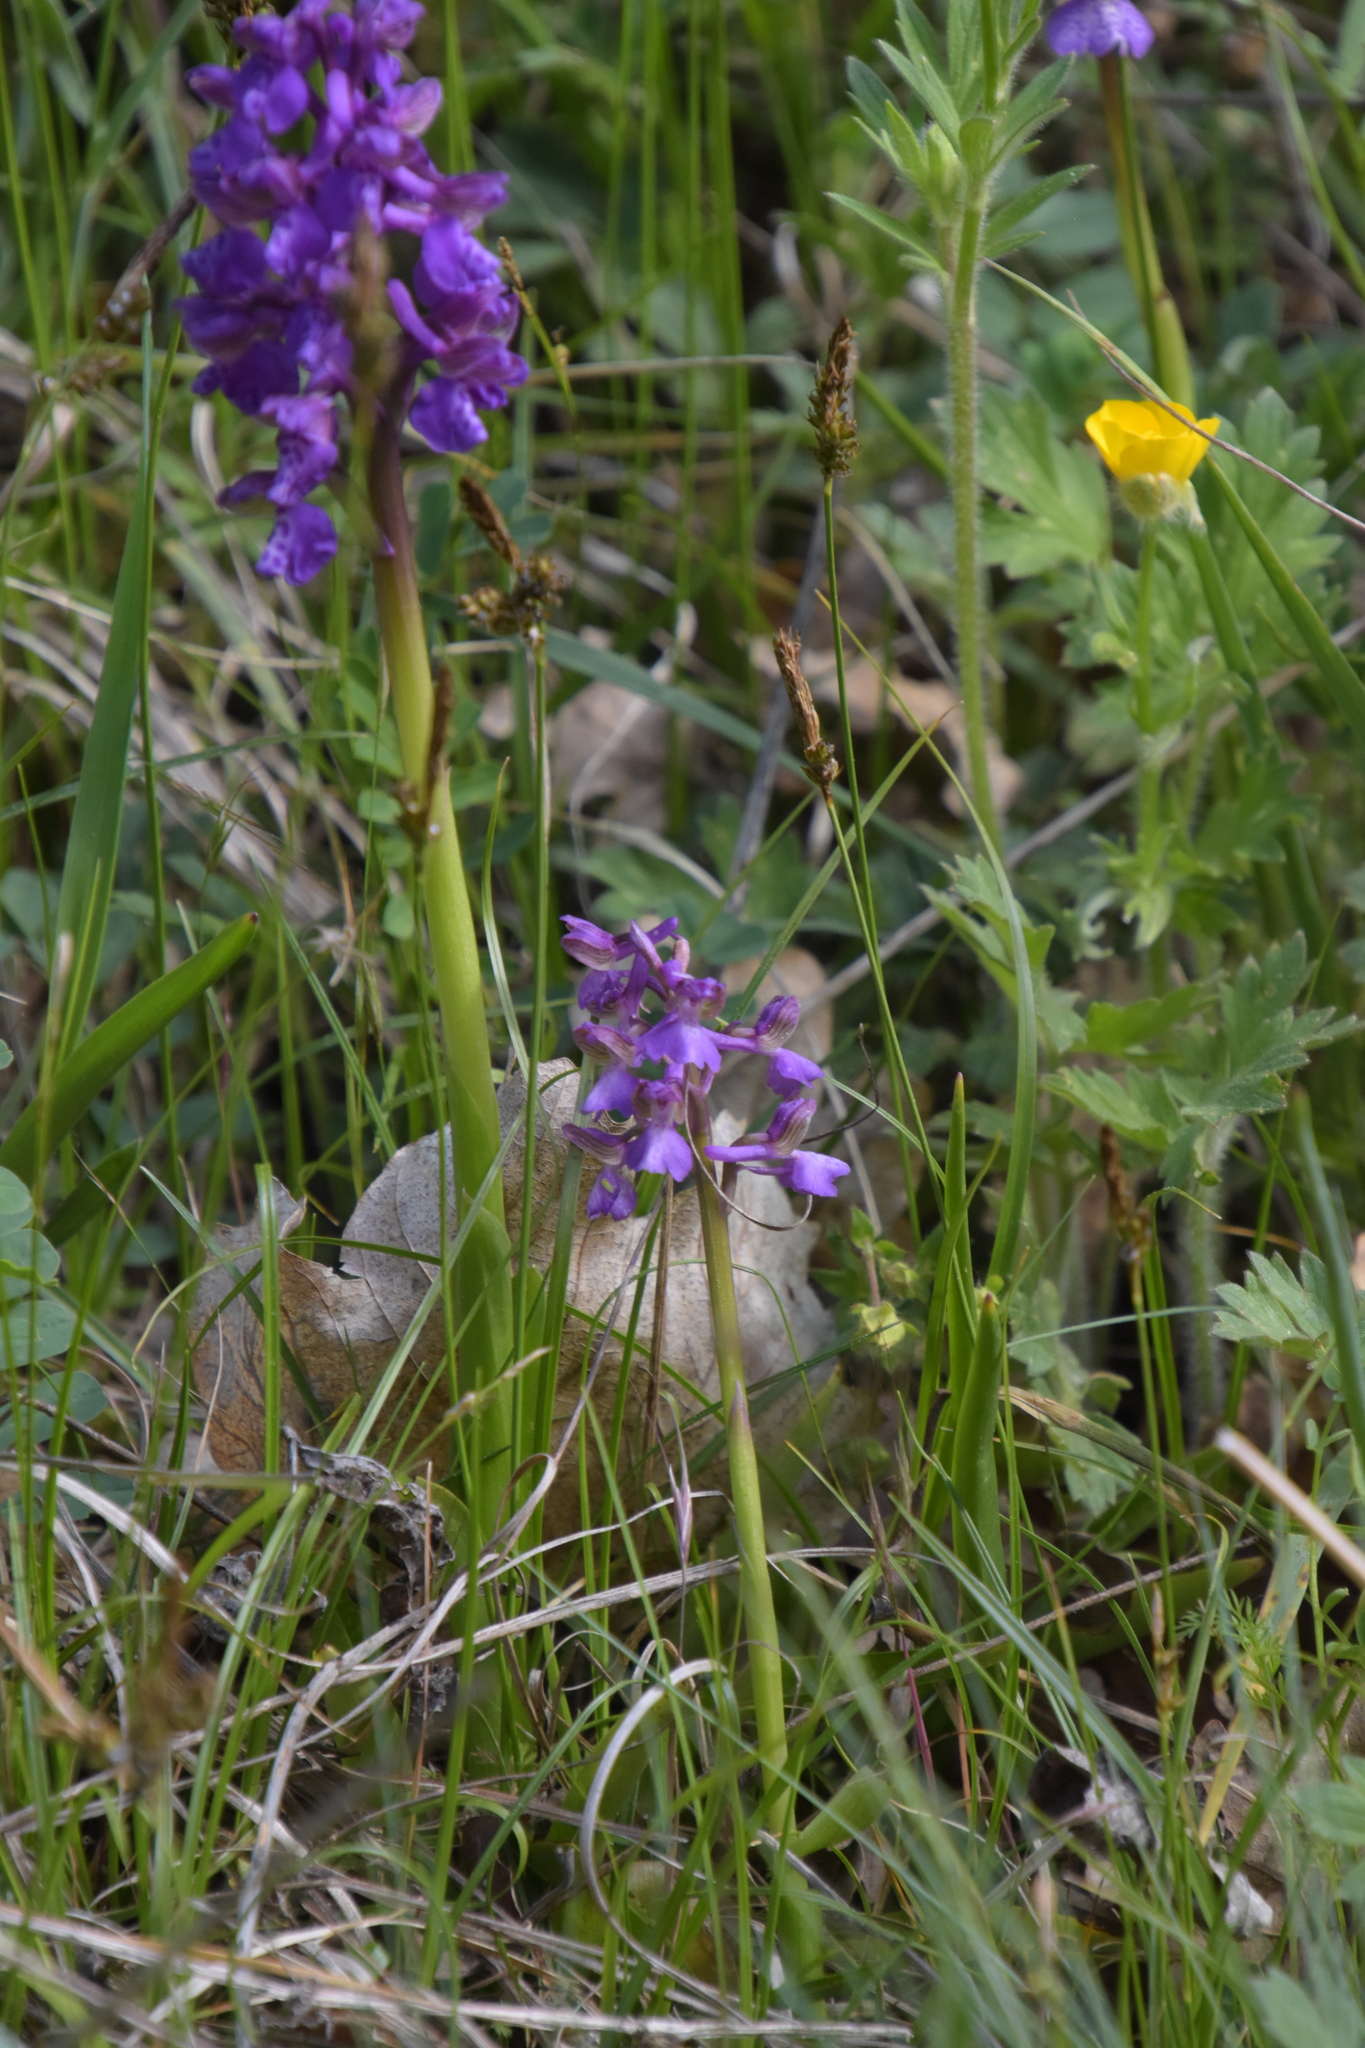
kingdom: Plantae
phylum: Tracheophyta
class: Liliopsida
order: Asparagales
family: Orchidaceae
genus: Anacamptis
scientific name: Anacamptis morio
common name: Green-winged orchid
